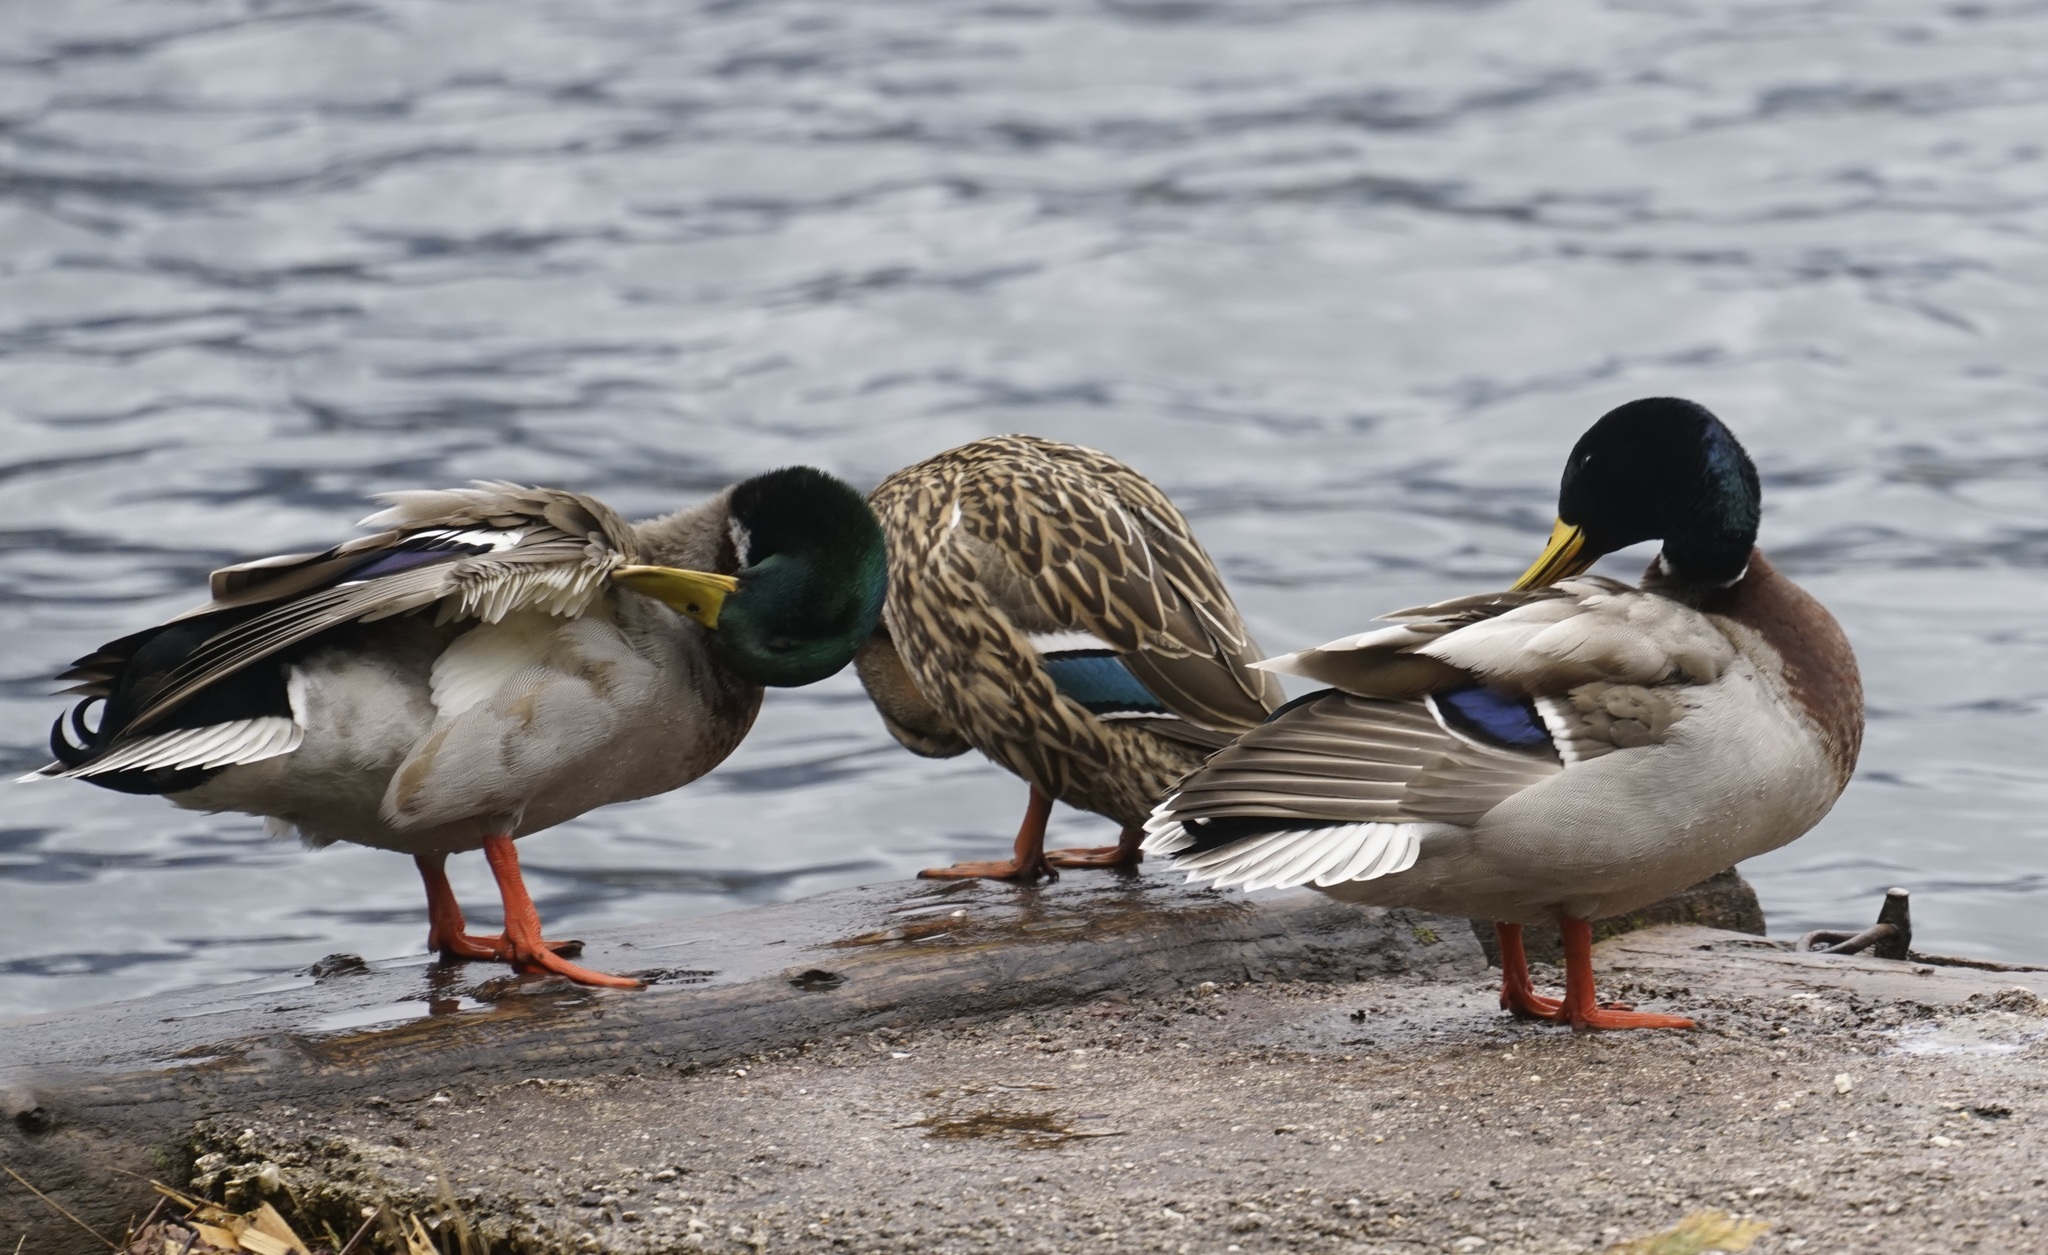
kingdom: Animalia
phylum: Chordata
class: Aves
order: Anseriformes
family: Anatidae
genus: Anas
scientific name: Anas platyrhynchos
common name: Mallard
